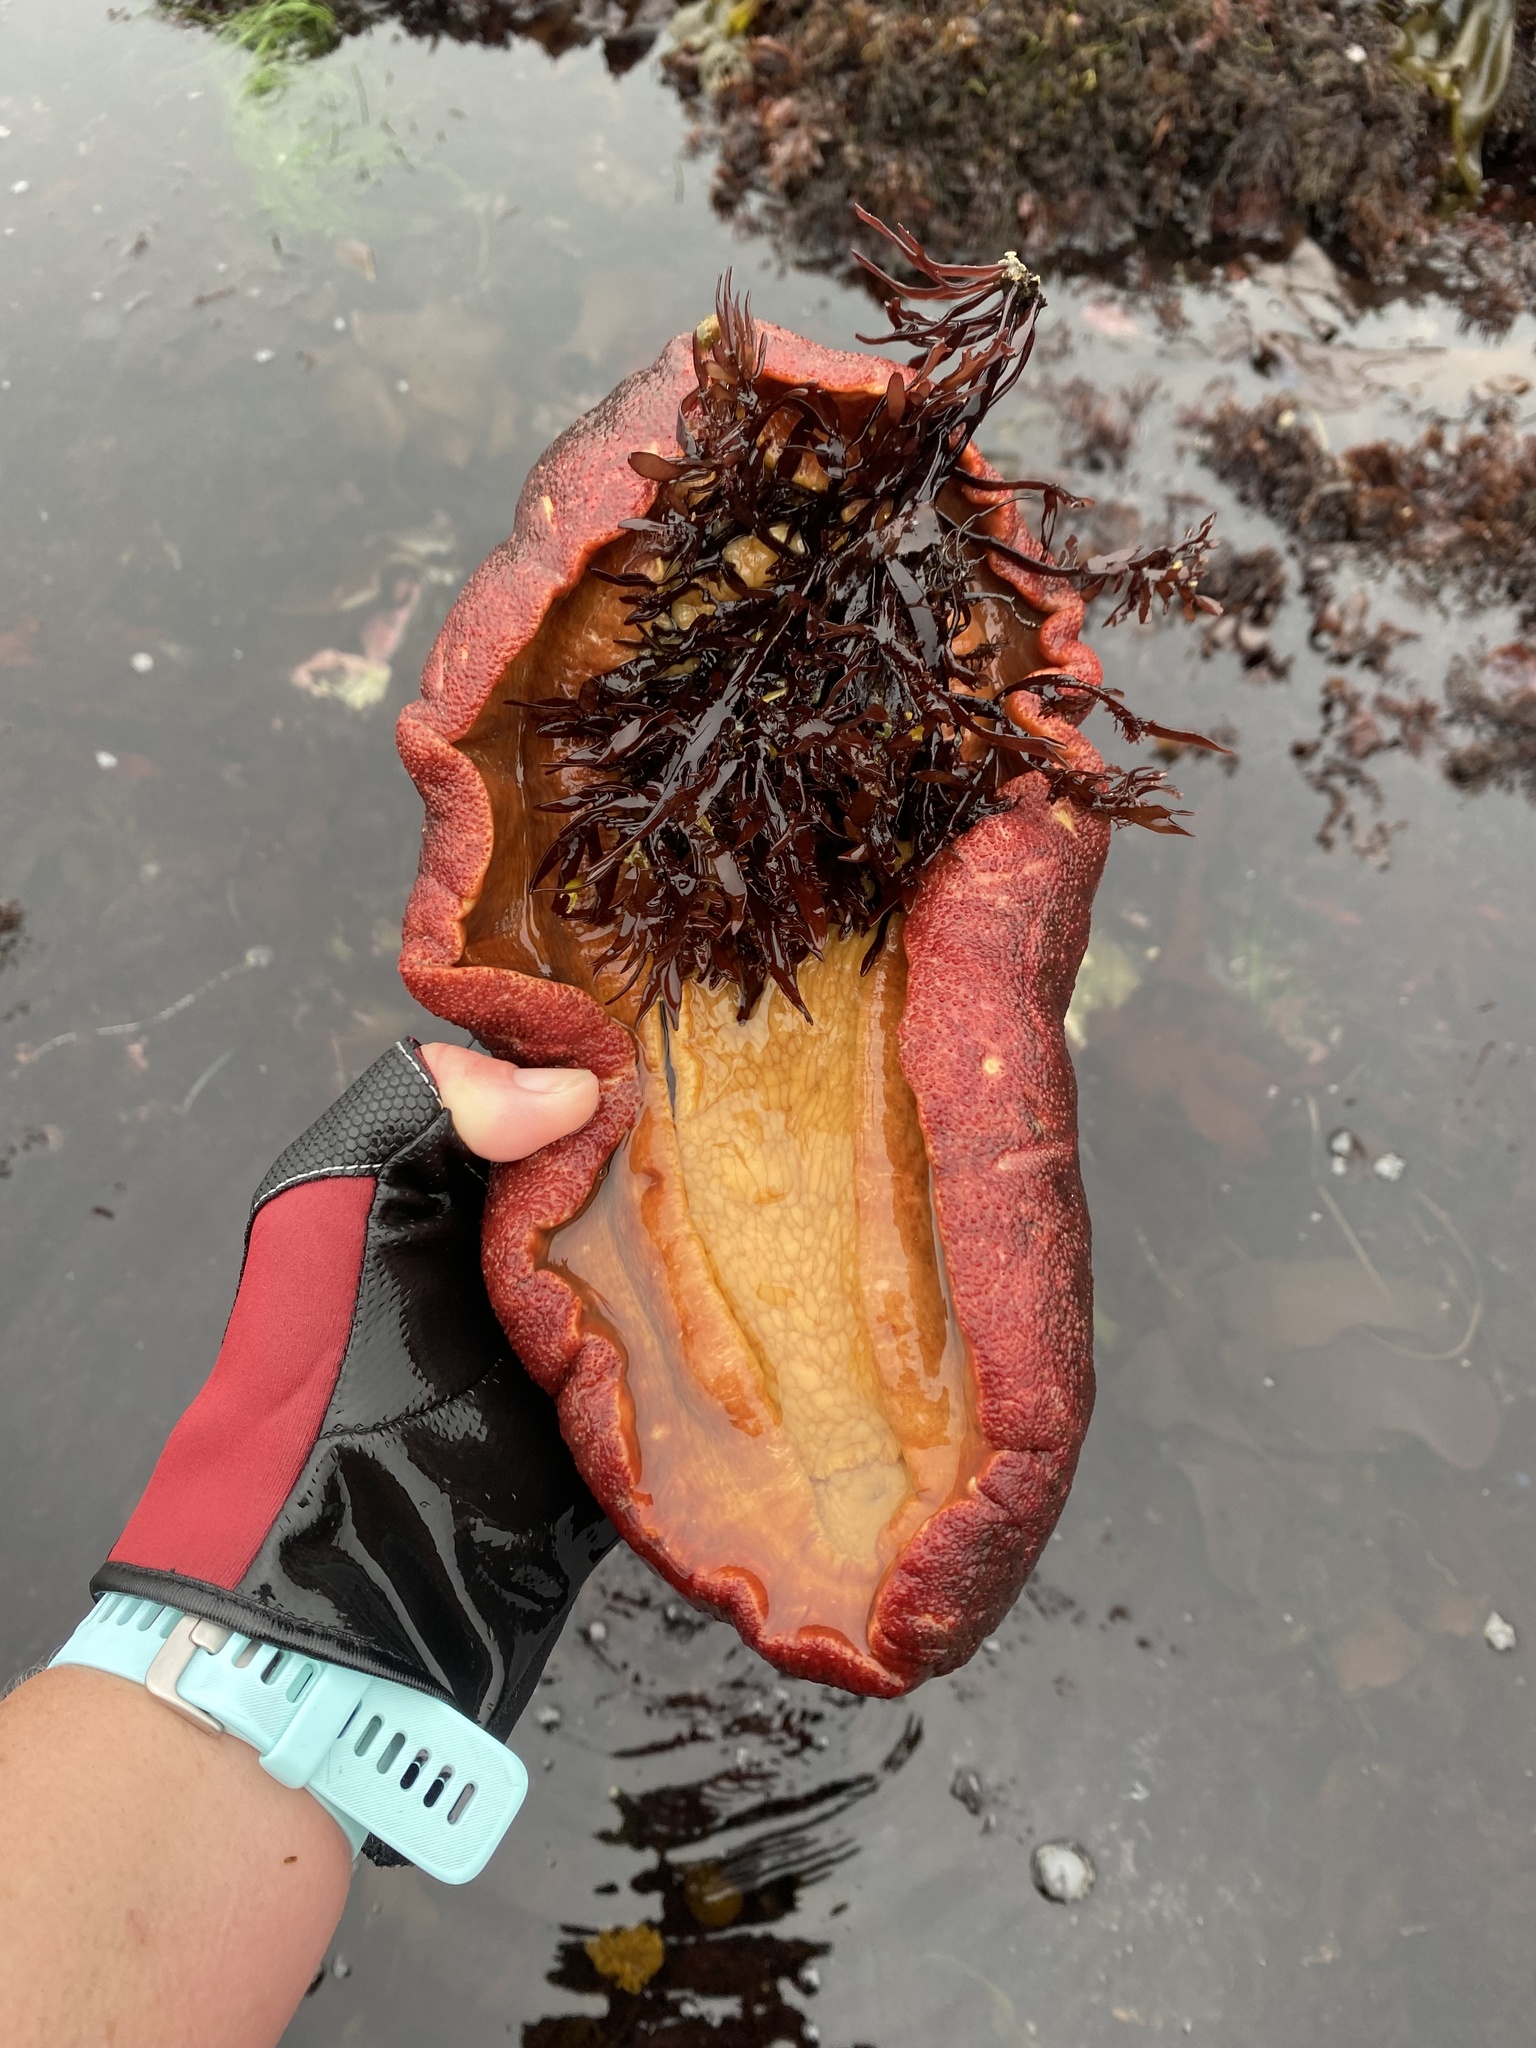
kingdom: Animalia
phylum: Mollusca
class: Polyplacophora
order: Chitonida
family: Acanthochitonidae
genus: Cryptochiton
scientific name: Cryptochiton stelleri
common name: Giant pacific chiton
